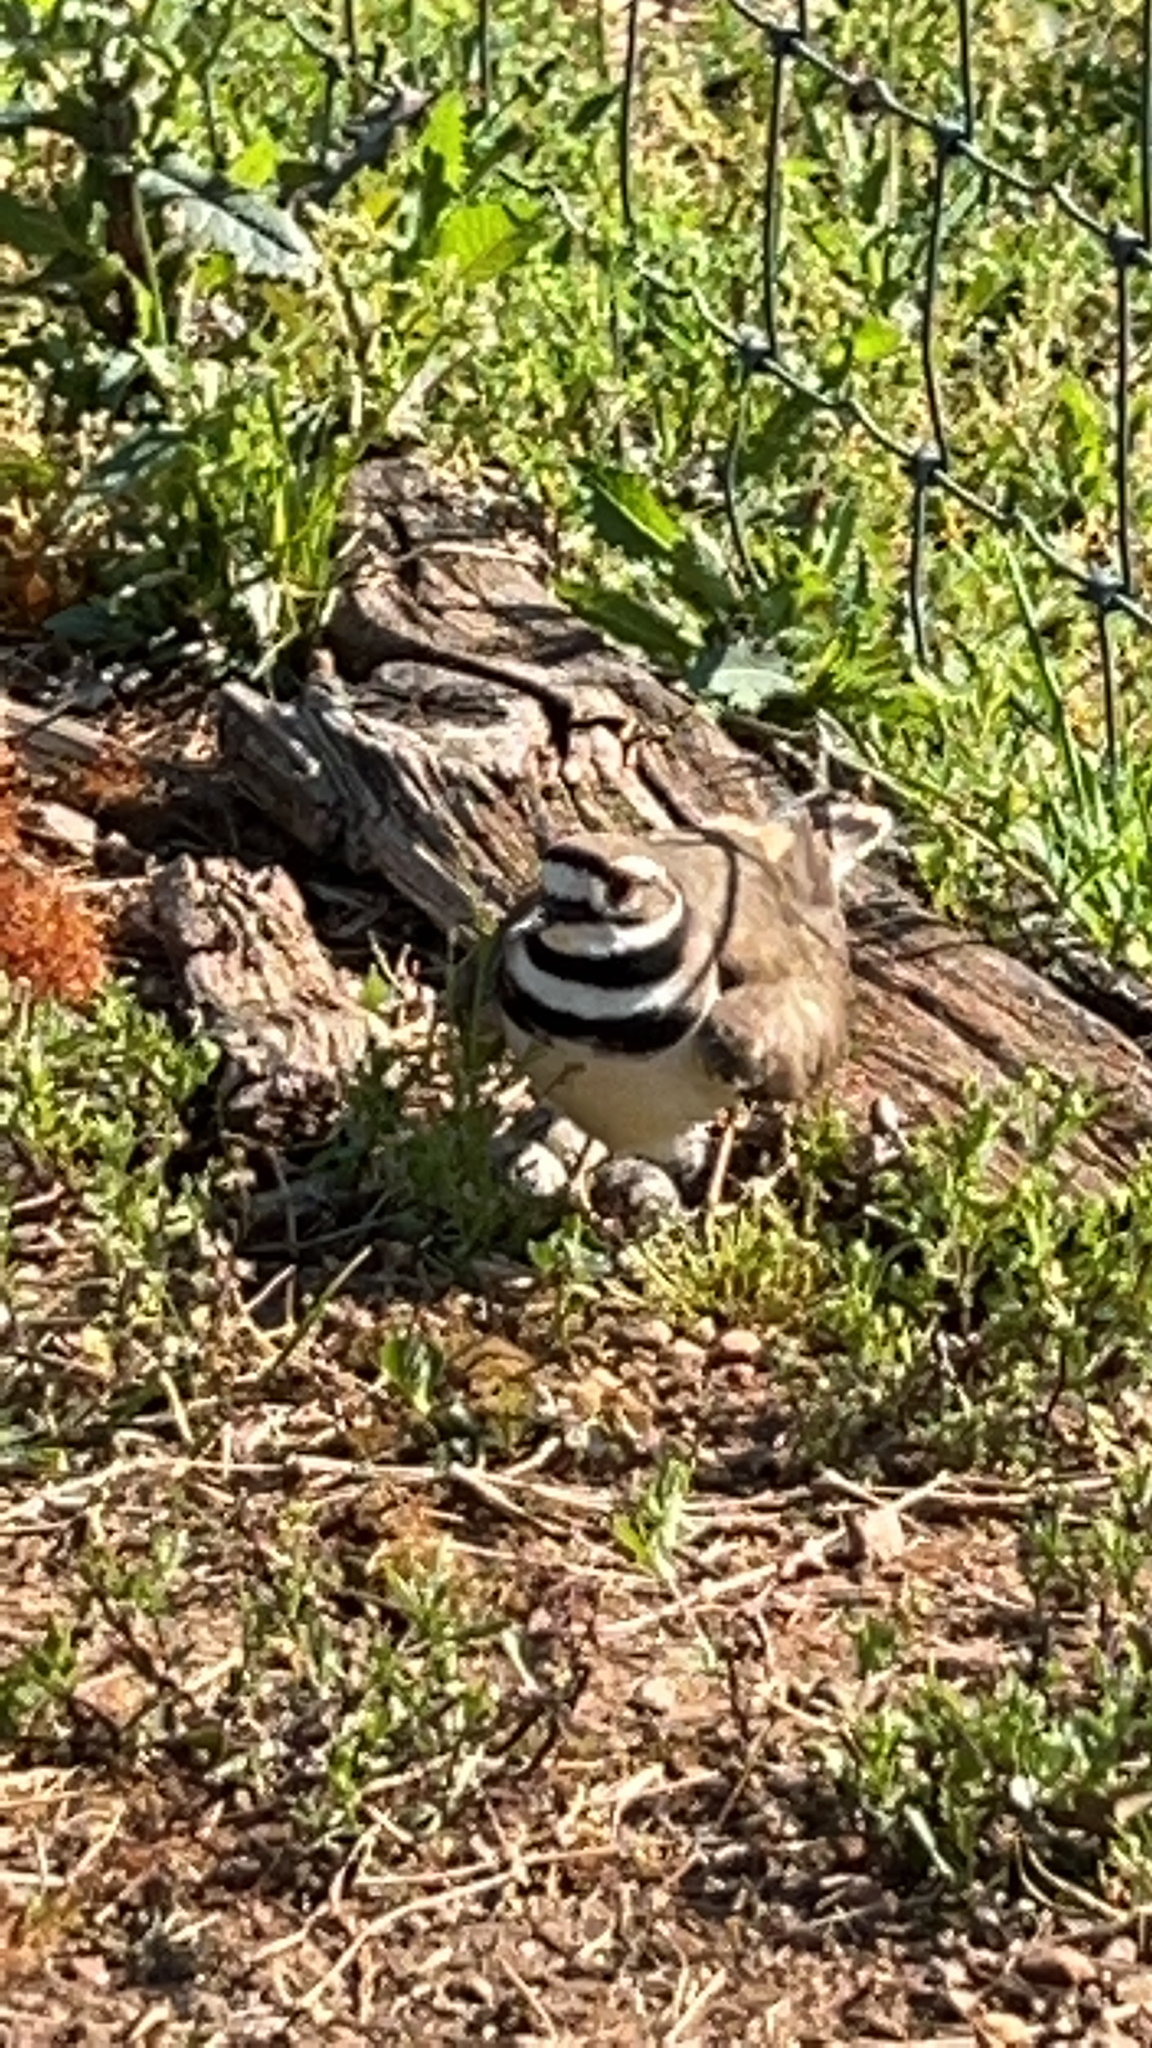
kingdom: Animalia
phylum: Chordata
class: Aves
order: Charadriiformes
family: Charadriidae
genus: Charadrius
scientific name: Charadrius vociferus
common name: Killdeer
